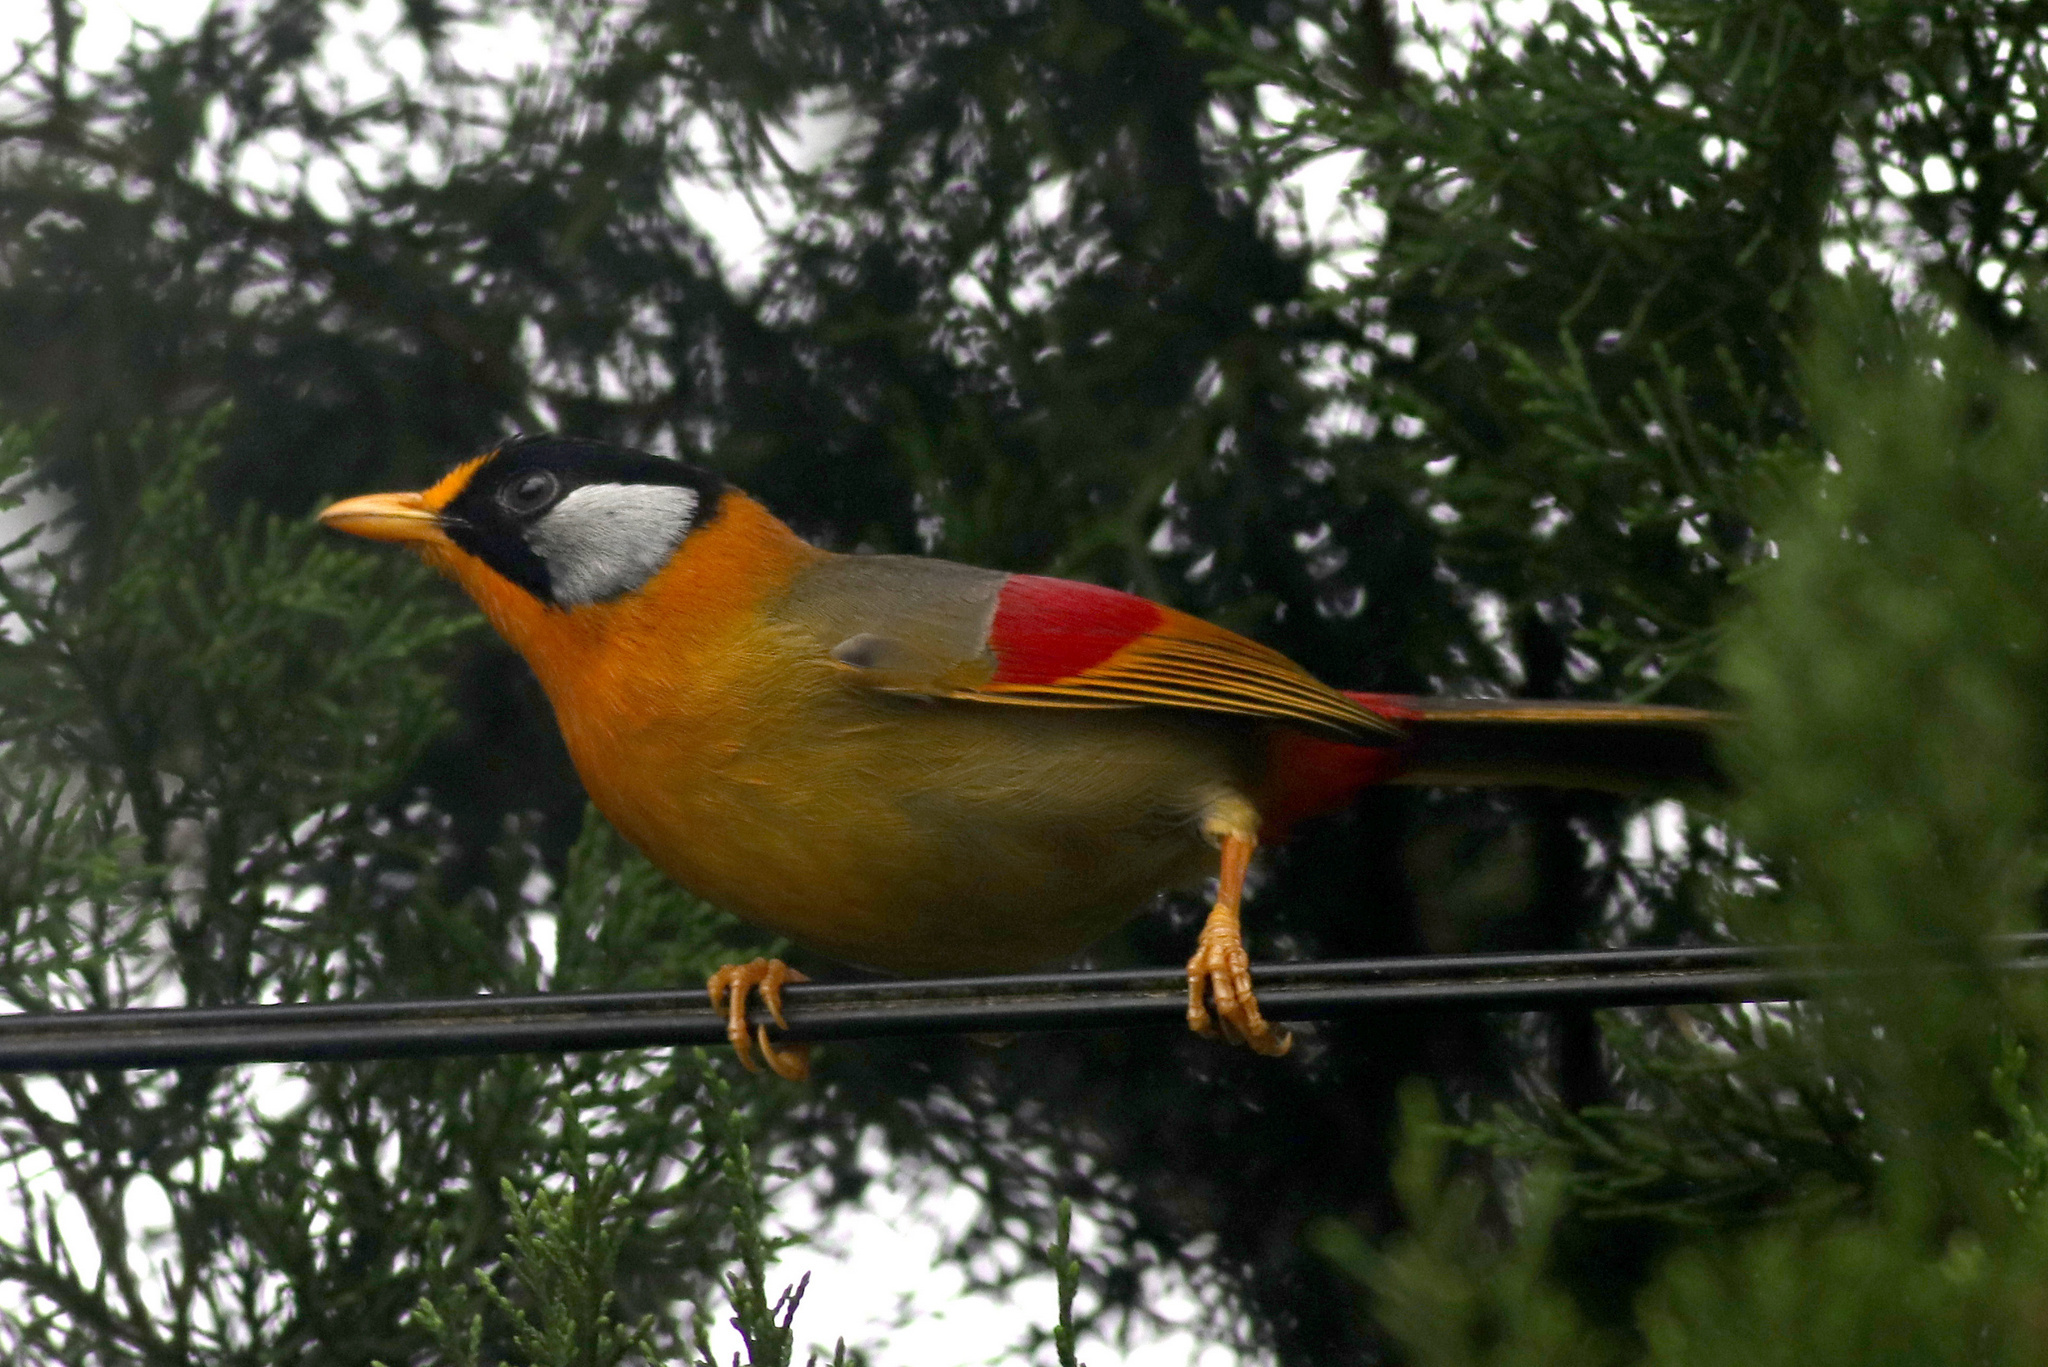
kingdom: Animalia
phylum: Chordata
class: Aves
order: Passeriformes
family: Leiothrichidae
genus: Leiothrix
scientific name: Leiothrix argentauris
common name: Silver-eared mesia
